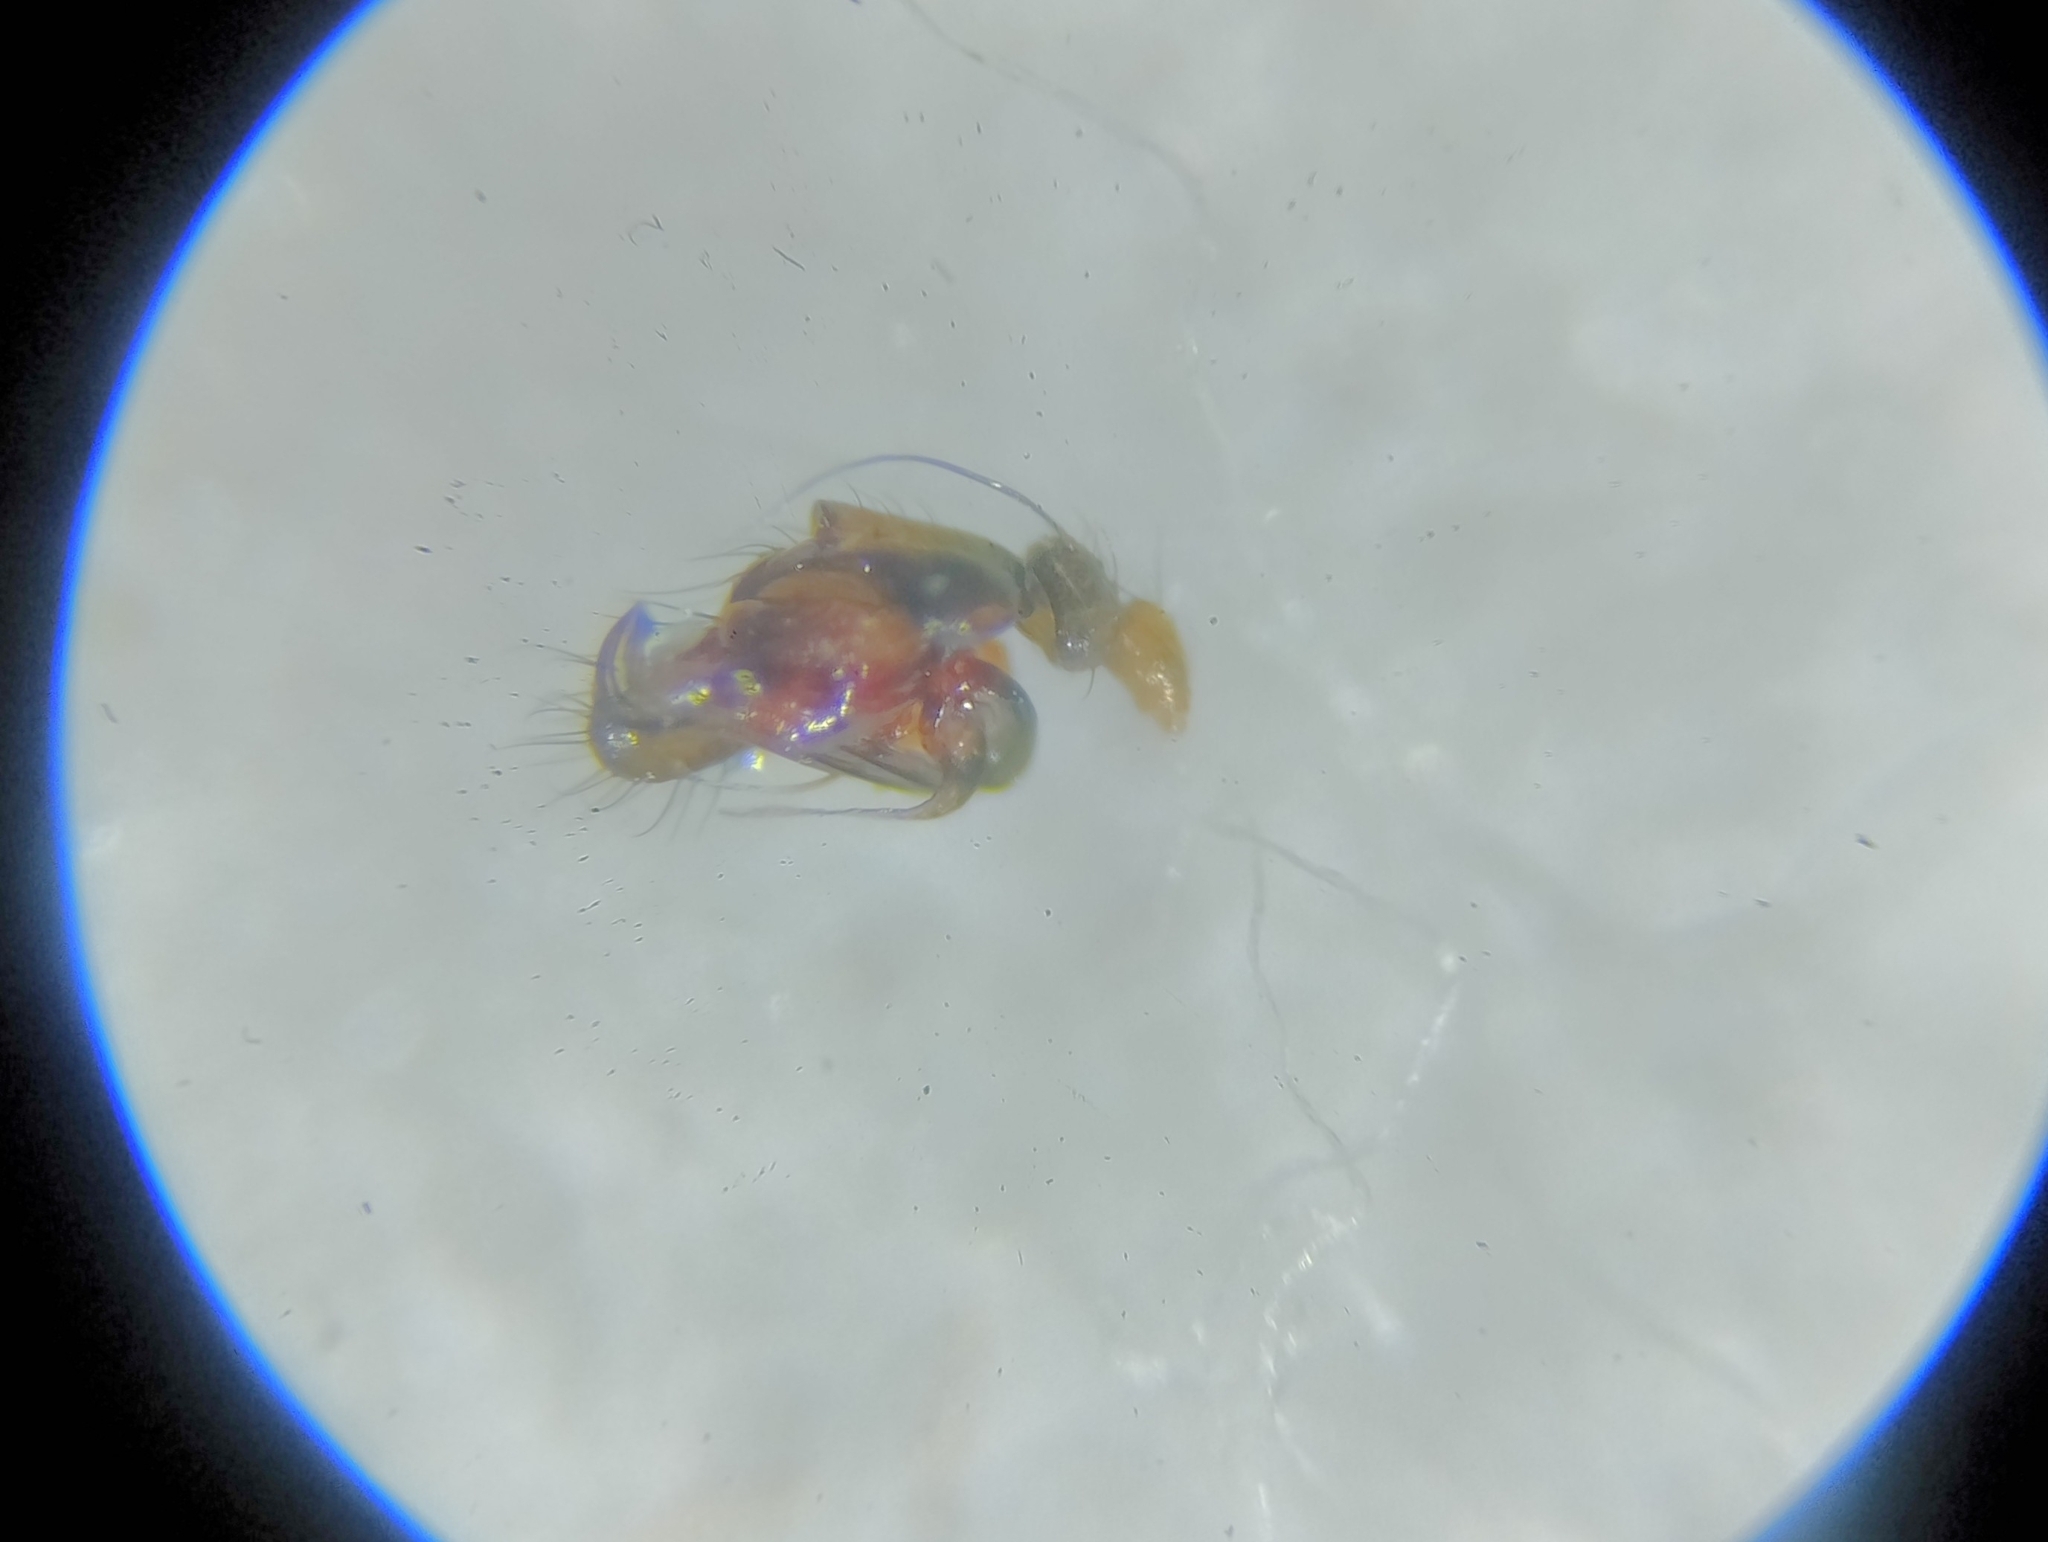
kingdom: Animalia
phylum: Arthropoda
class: Arachnida
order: Araneae
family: Linyphiidae
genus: Diplostyla
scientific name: Diplostyla concolor
